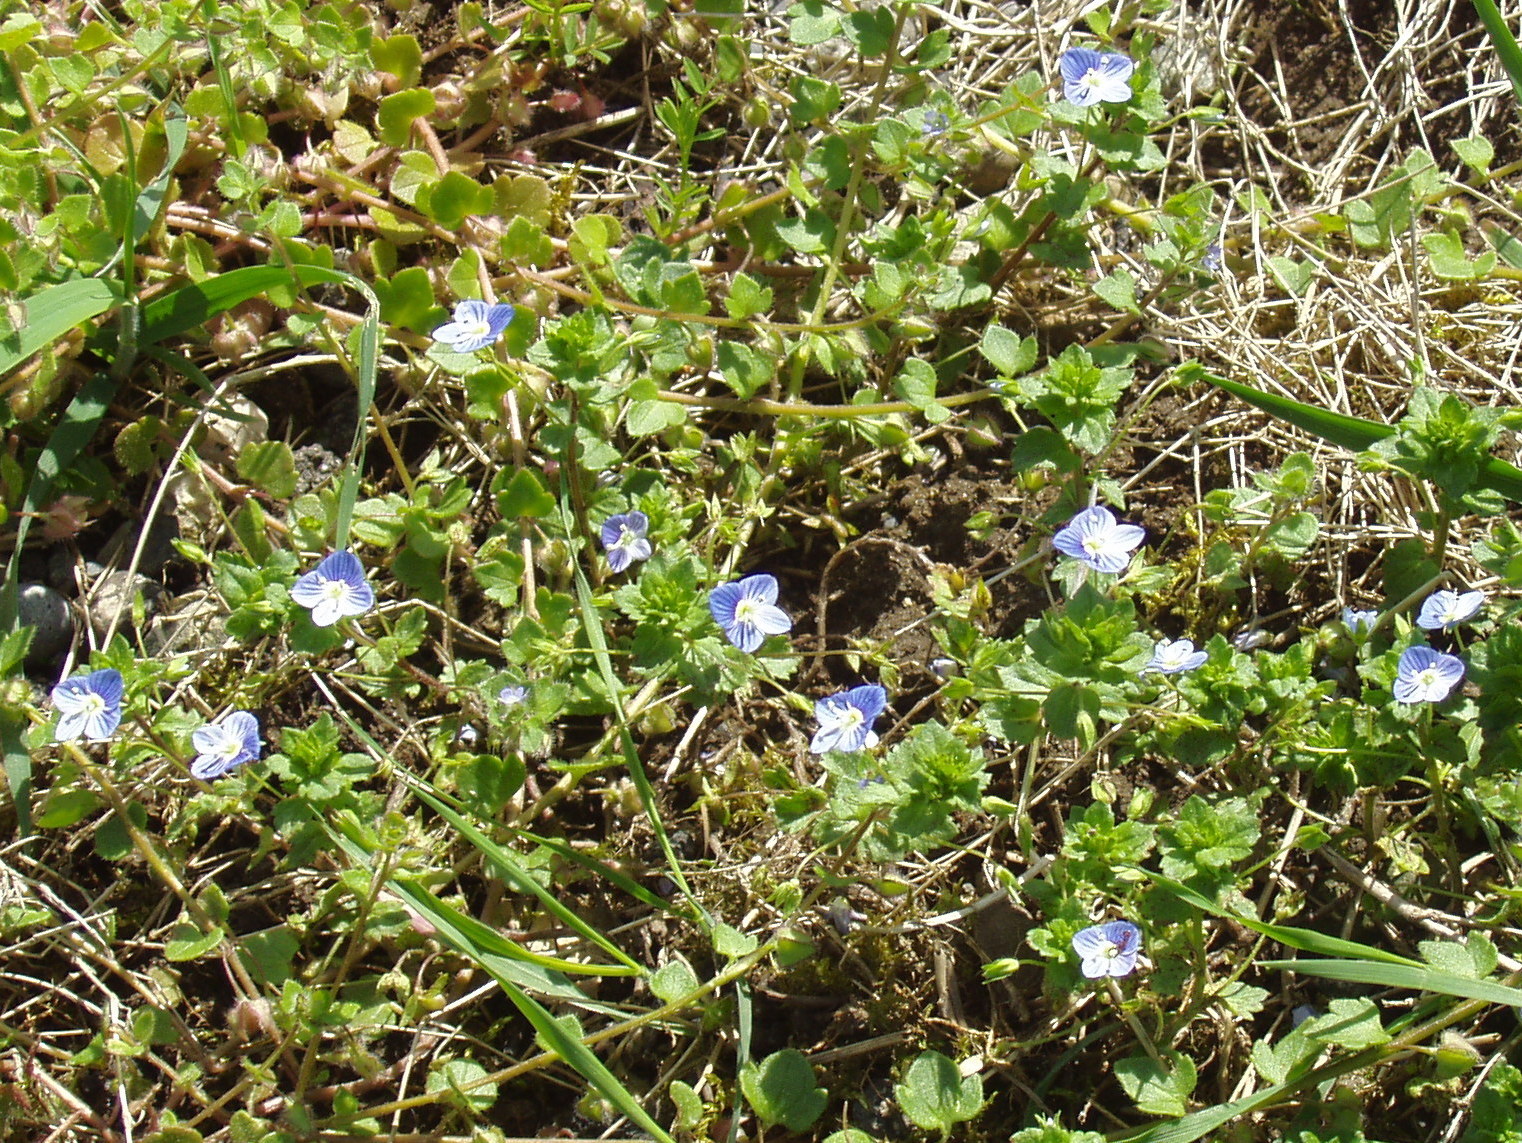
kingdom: Plantae
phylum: Tracheophyta
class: Magnoliopsida
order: Lamiales
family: Plantaginaceae
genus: Veronica
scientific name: Veronica hederifolia
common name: Ivy-leaved speedwell
